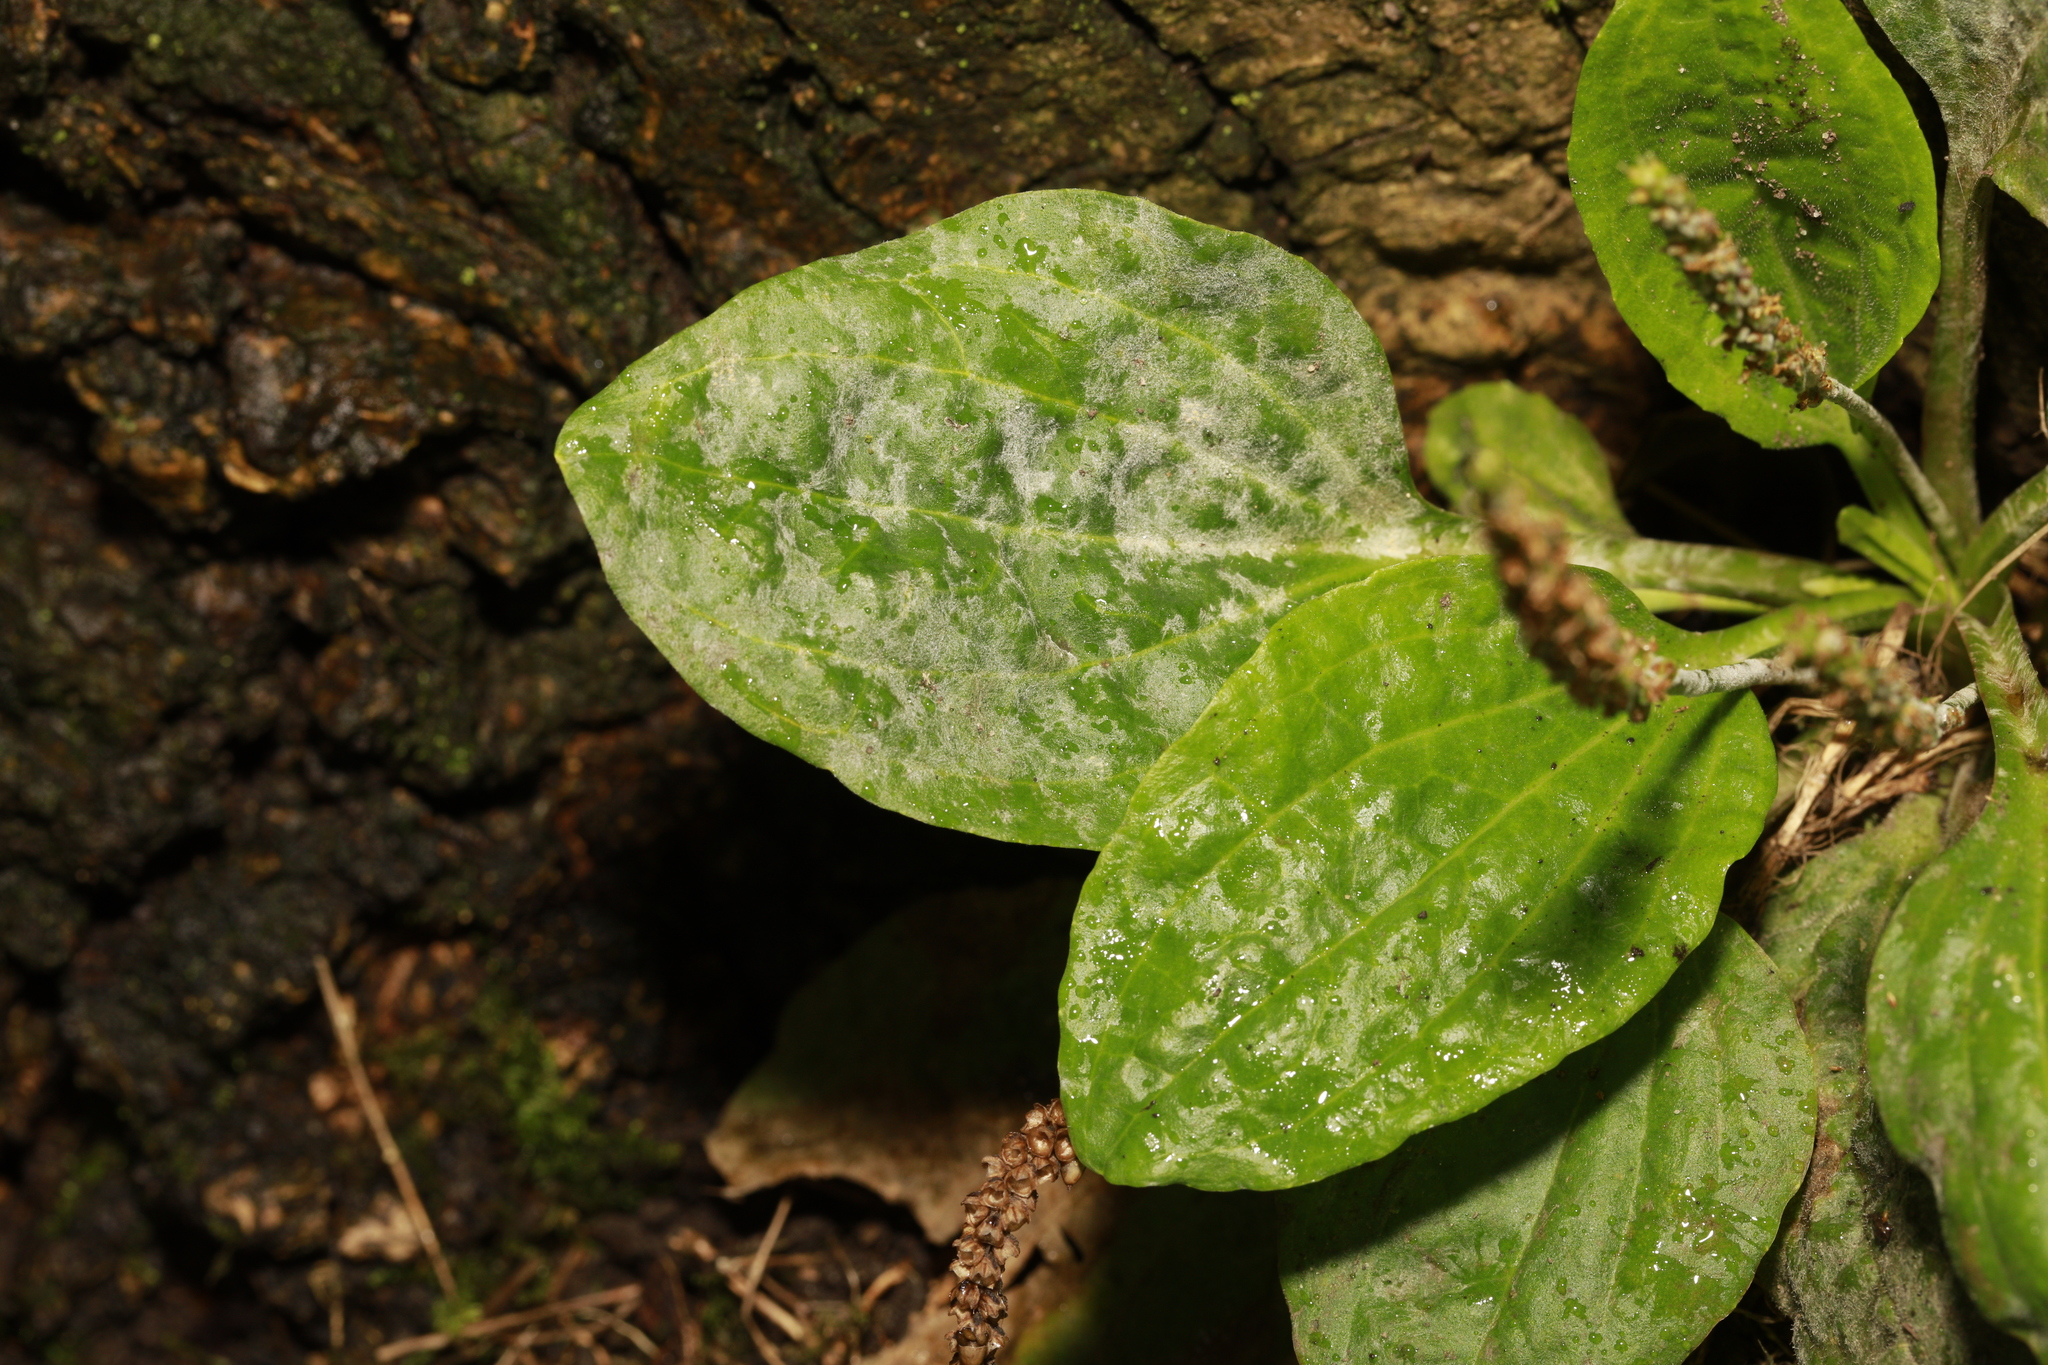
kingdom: Fungi
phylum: Ascomycota
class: Leotiomycetes
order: Helotiales
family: Erysiphaceae
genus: Golovinomyces
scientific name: Golovinomyces sordidus
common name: Plantain mildew
